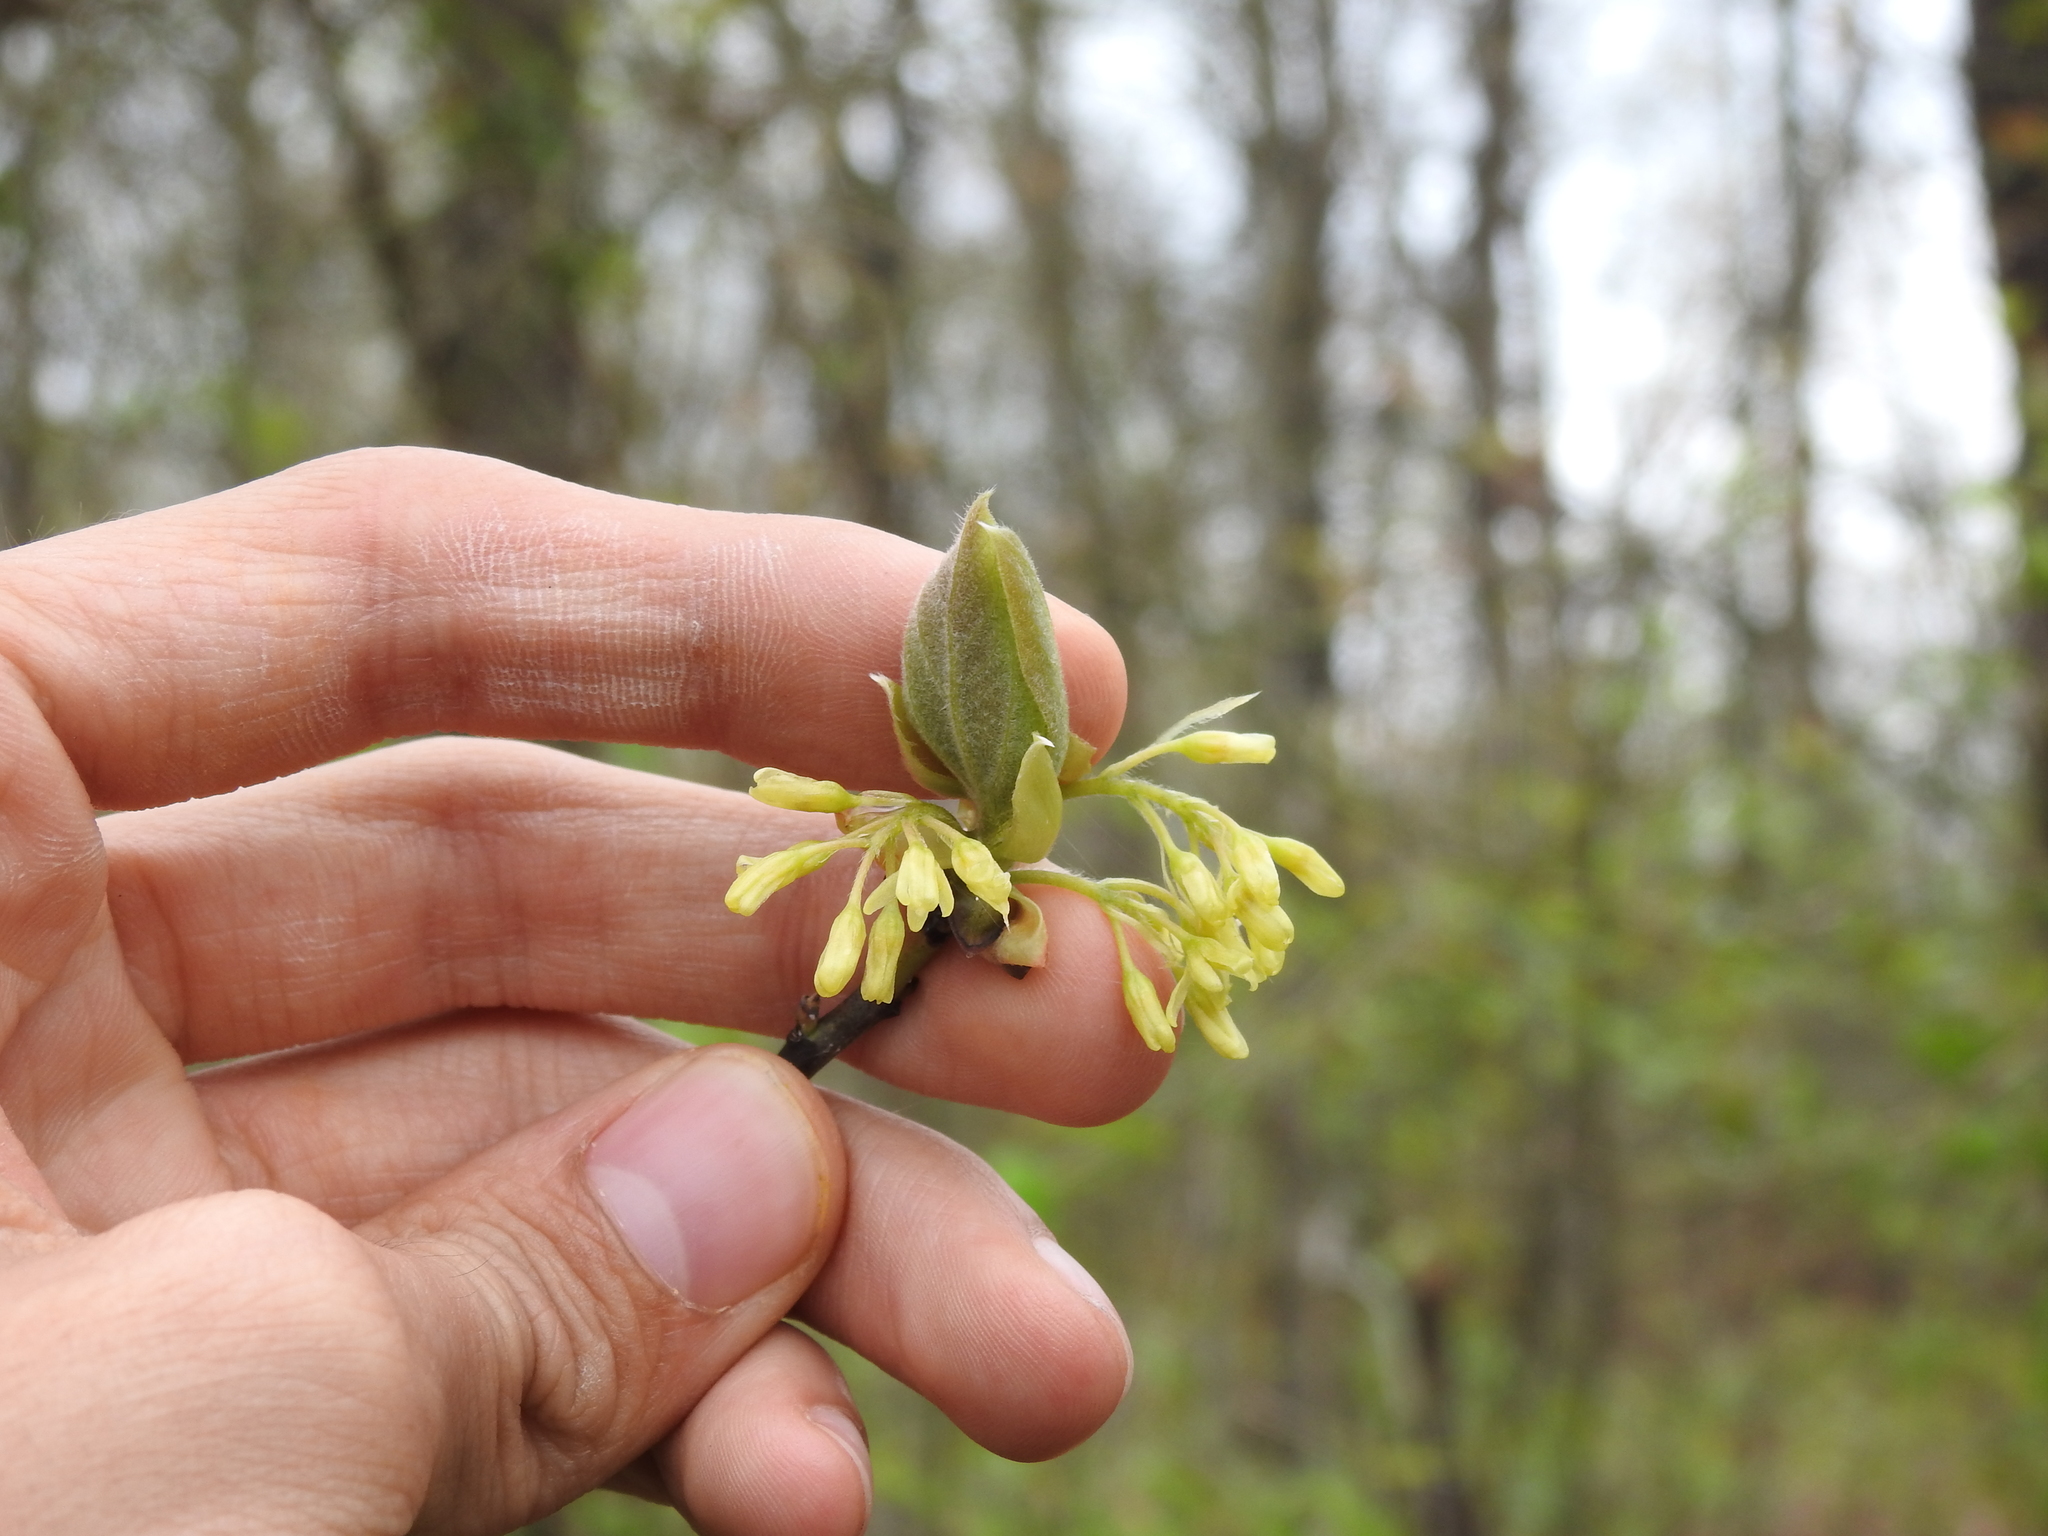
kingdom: Plantae
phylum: Tracheophyta
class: Magnoliopsida
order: Laurales
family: Lauraceae
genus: Sassafras
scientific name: Sassafras albidum
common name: Sassafras
